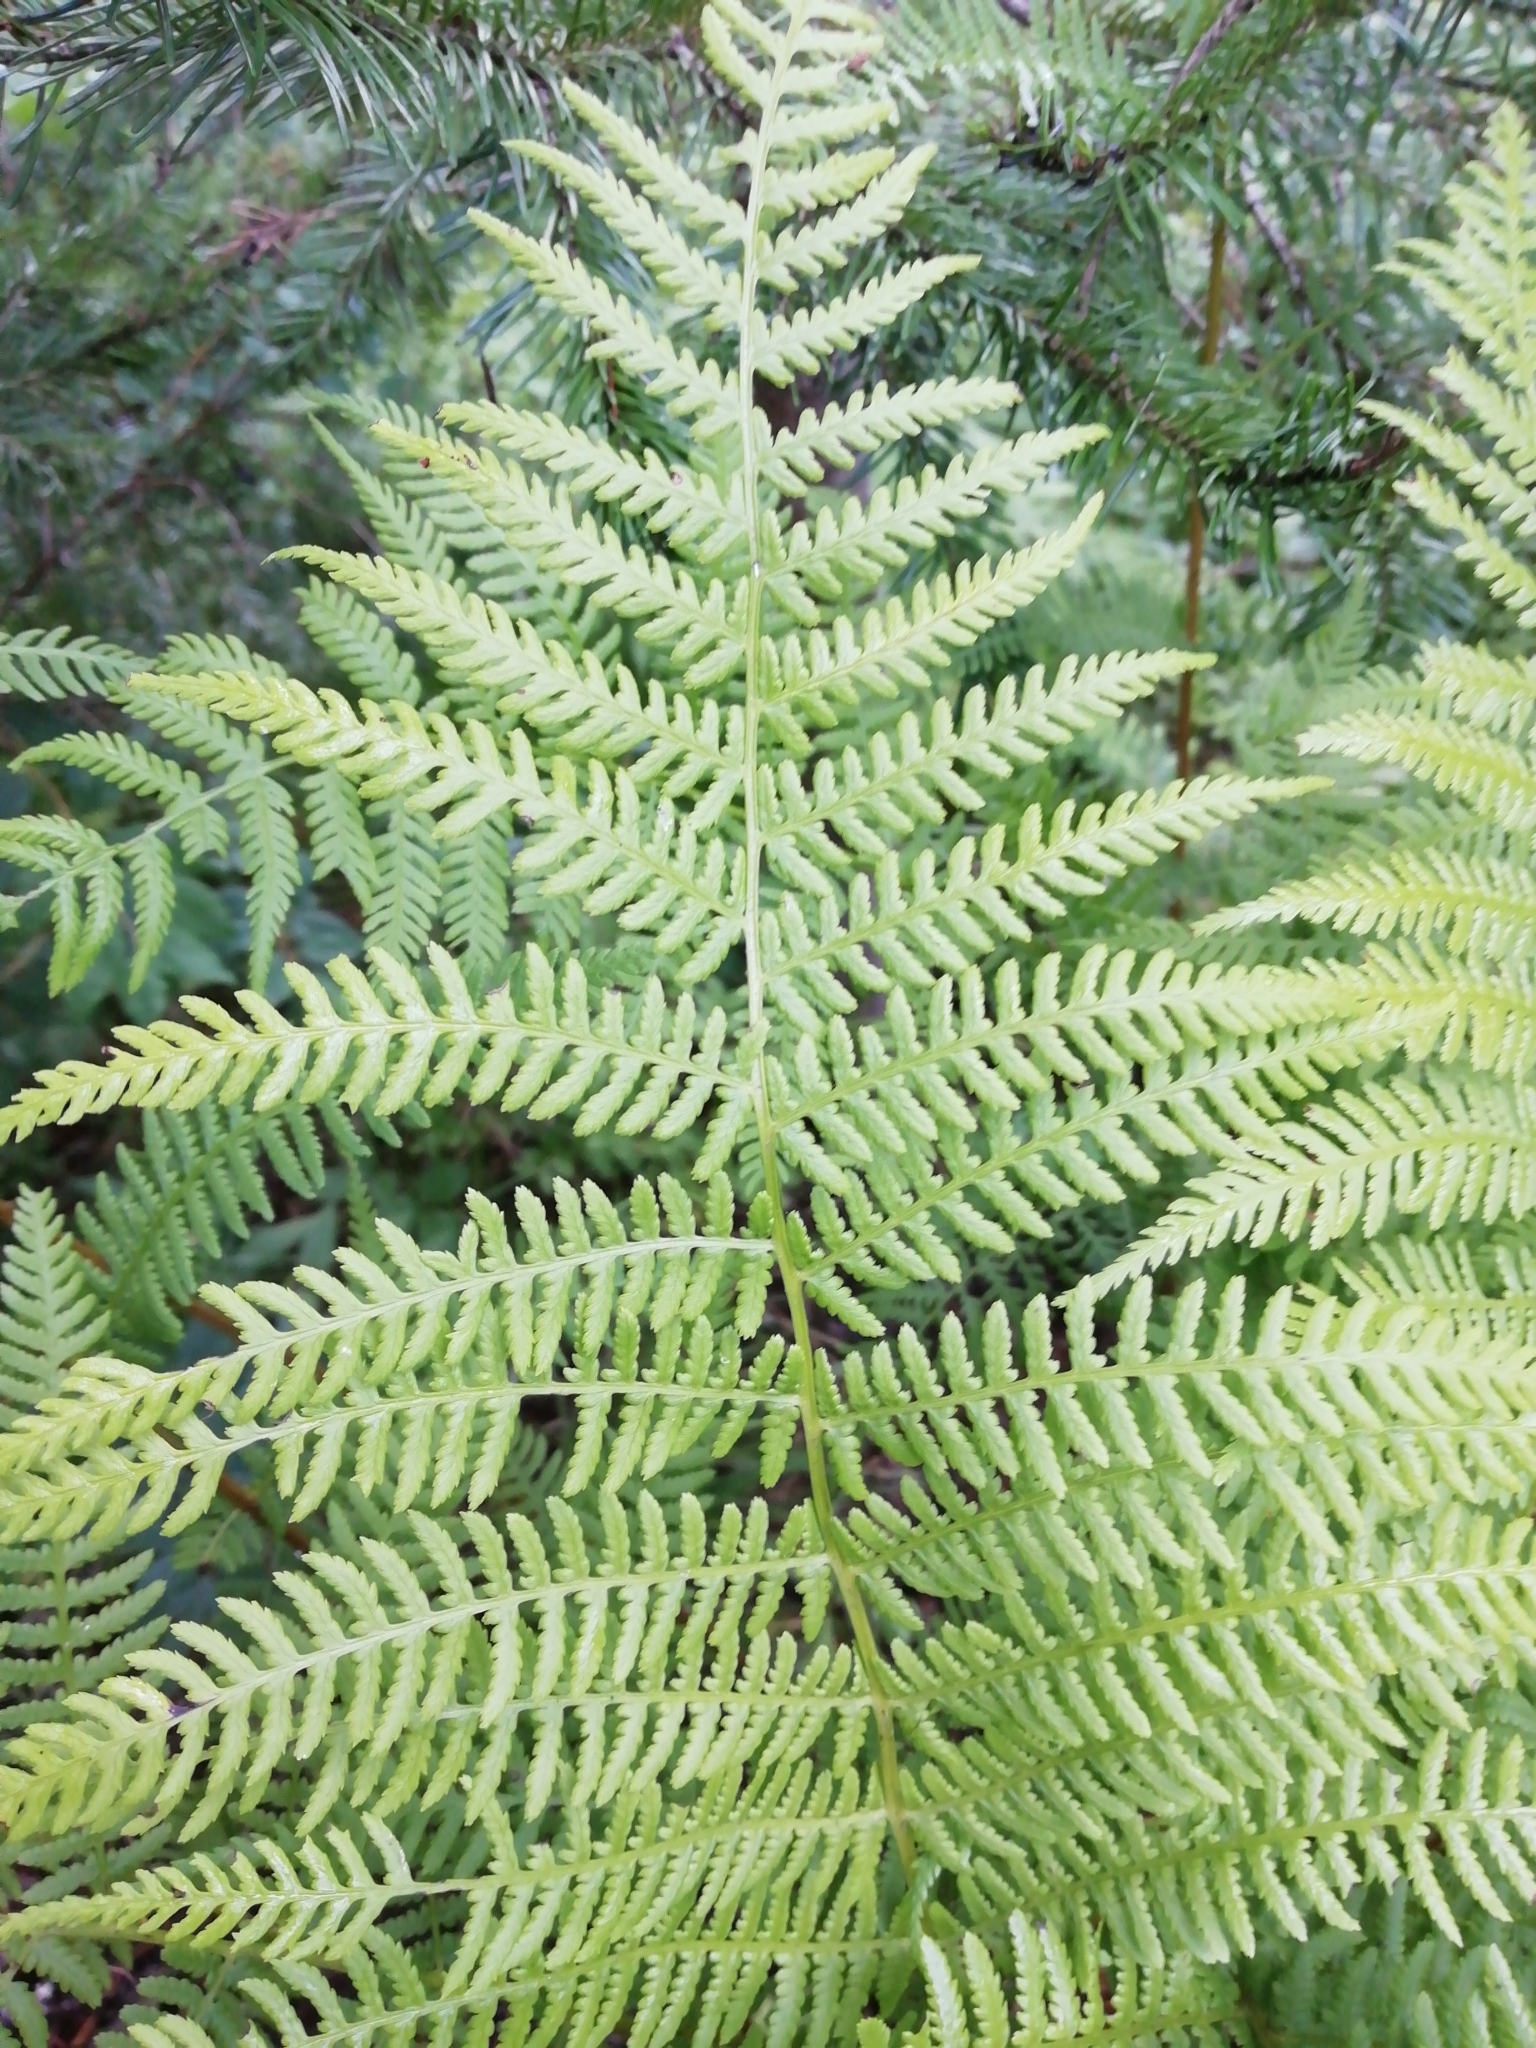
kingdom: Plantae
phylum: Tracheophyta
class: Polypodiopsida
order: Polypodiales
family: Athyriaceae
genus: Athyrium
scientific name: Athyrium filix-femina
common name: Lady fern
